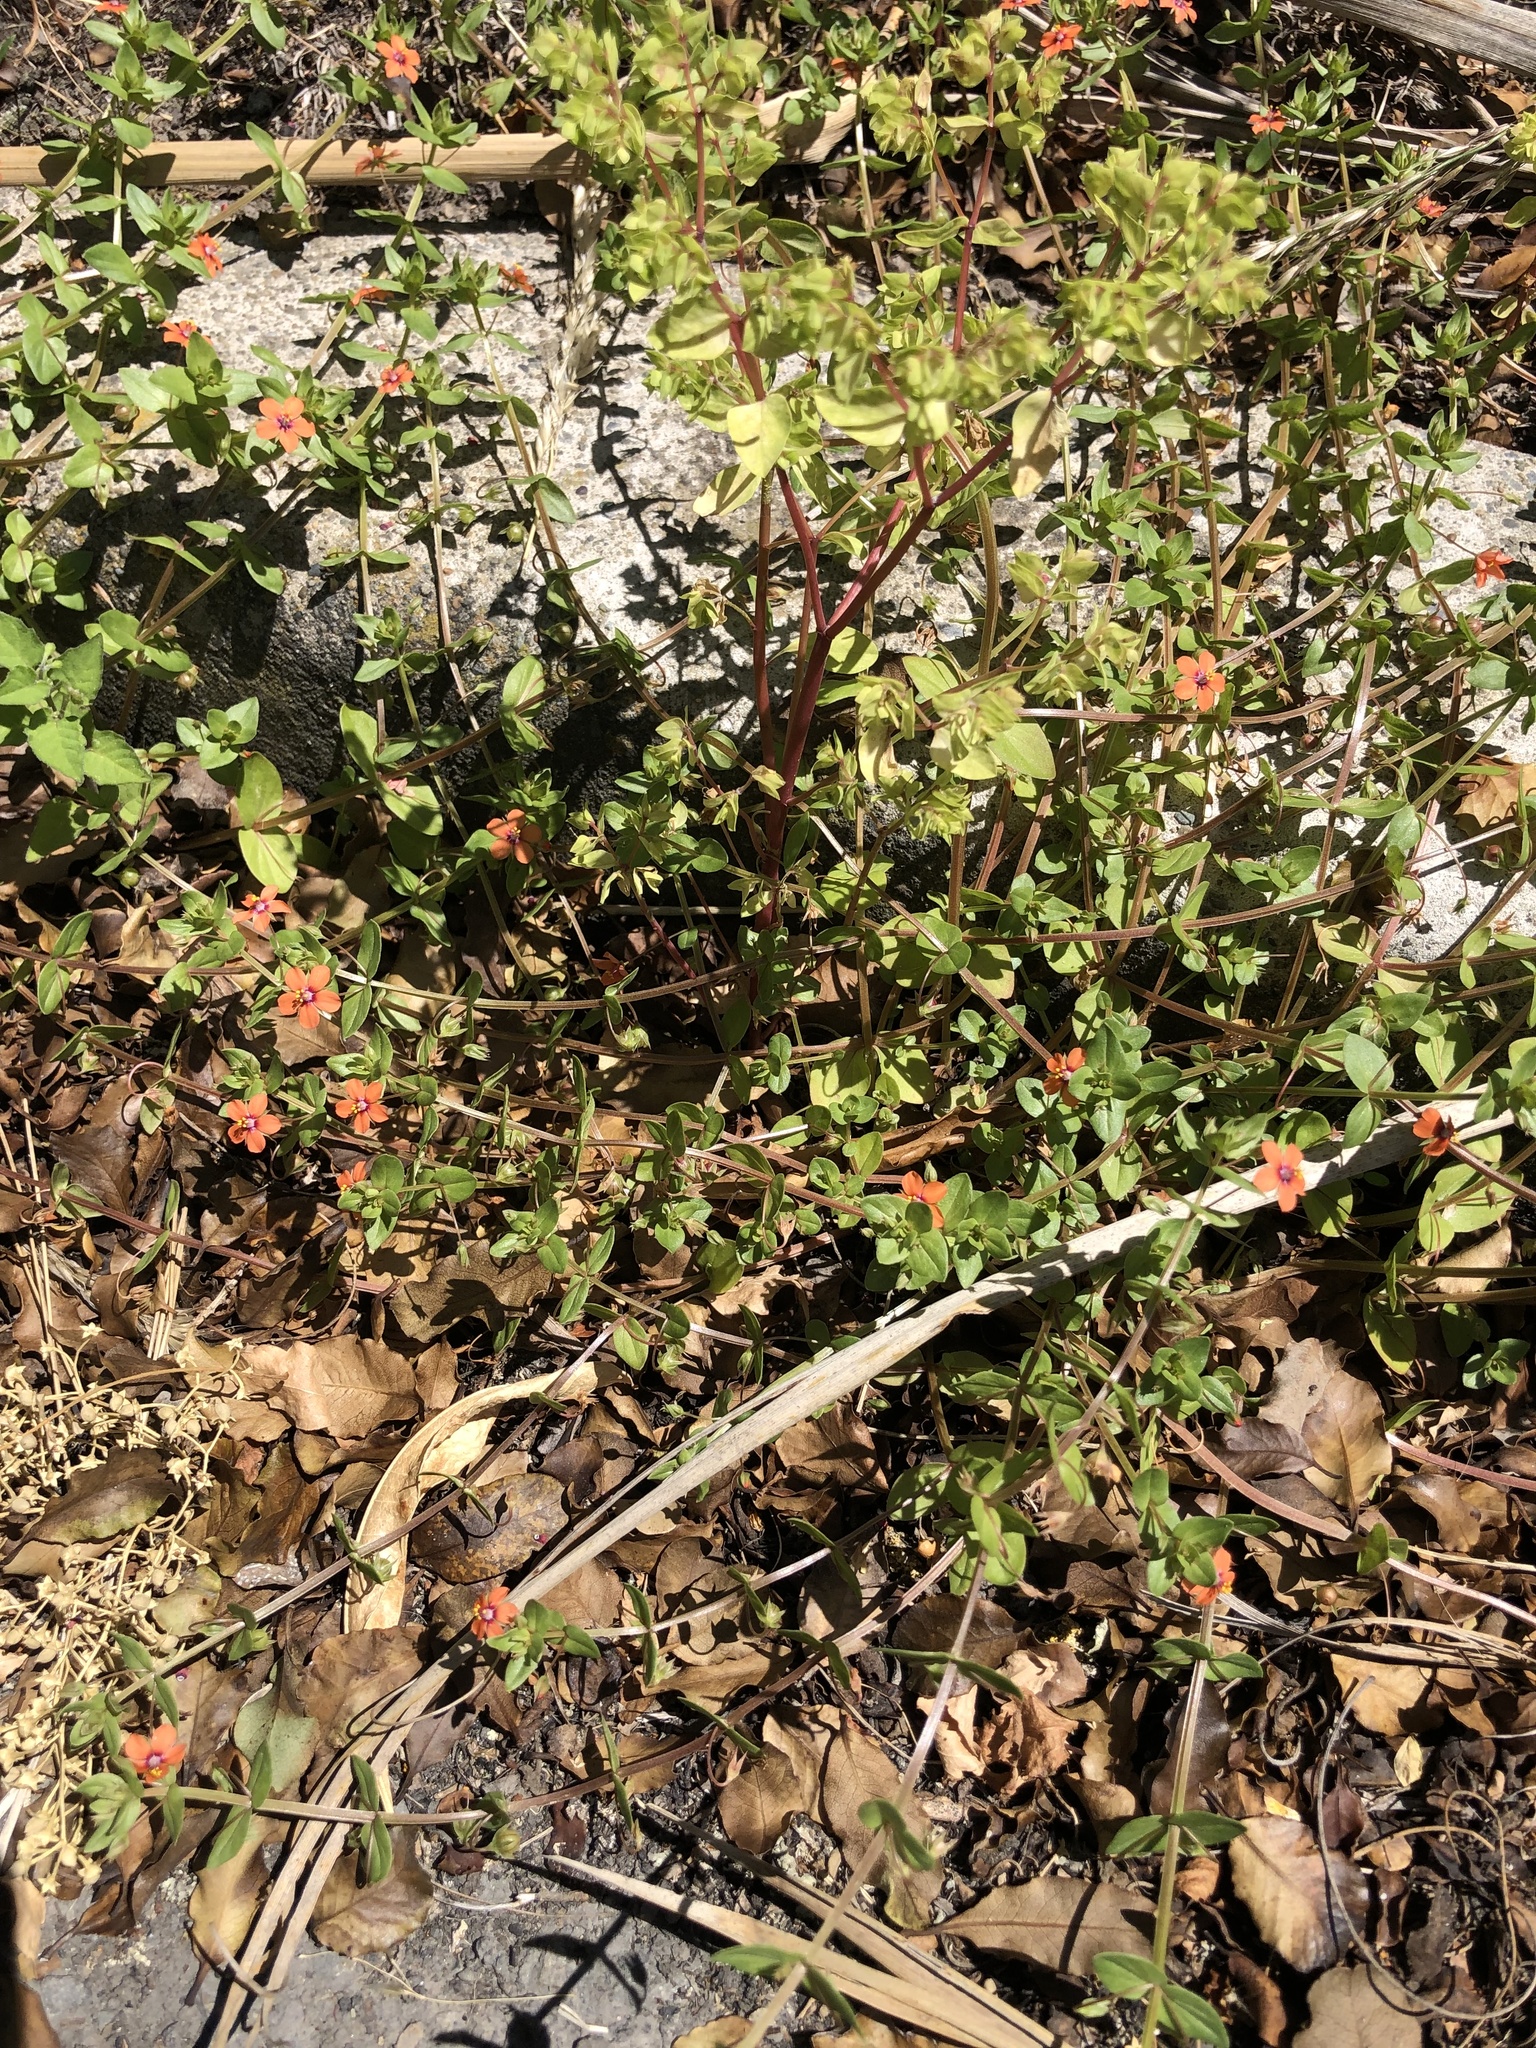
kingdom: Plantae
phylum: Tracheophyta
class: Magnoliopsida
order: Ericales
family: Primulaceae
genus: Lysimachia
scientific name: Lysimachia arvensis
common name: Scarlet pimpernel
